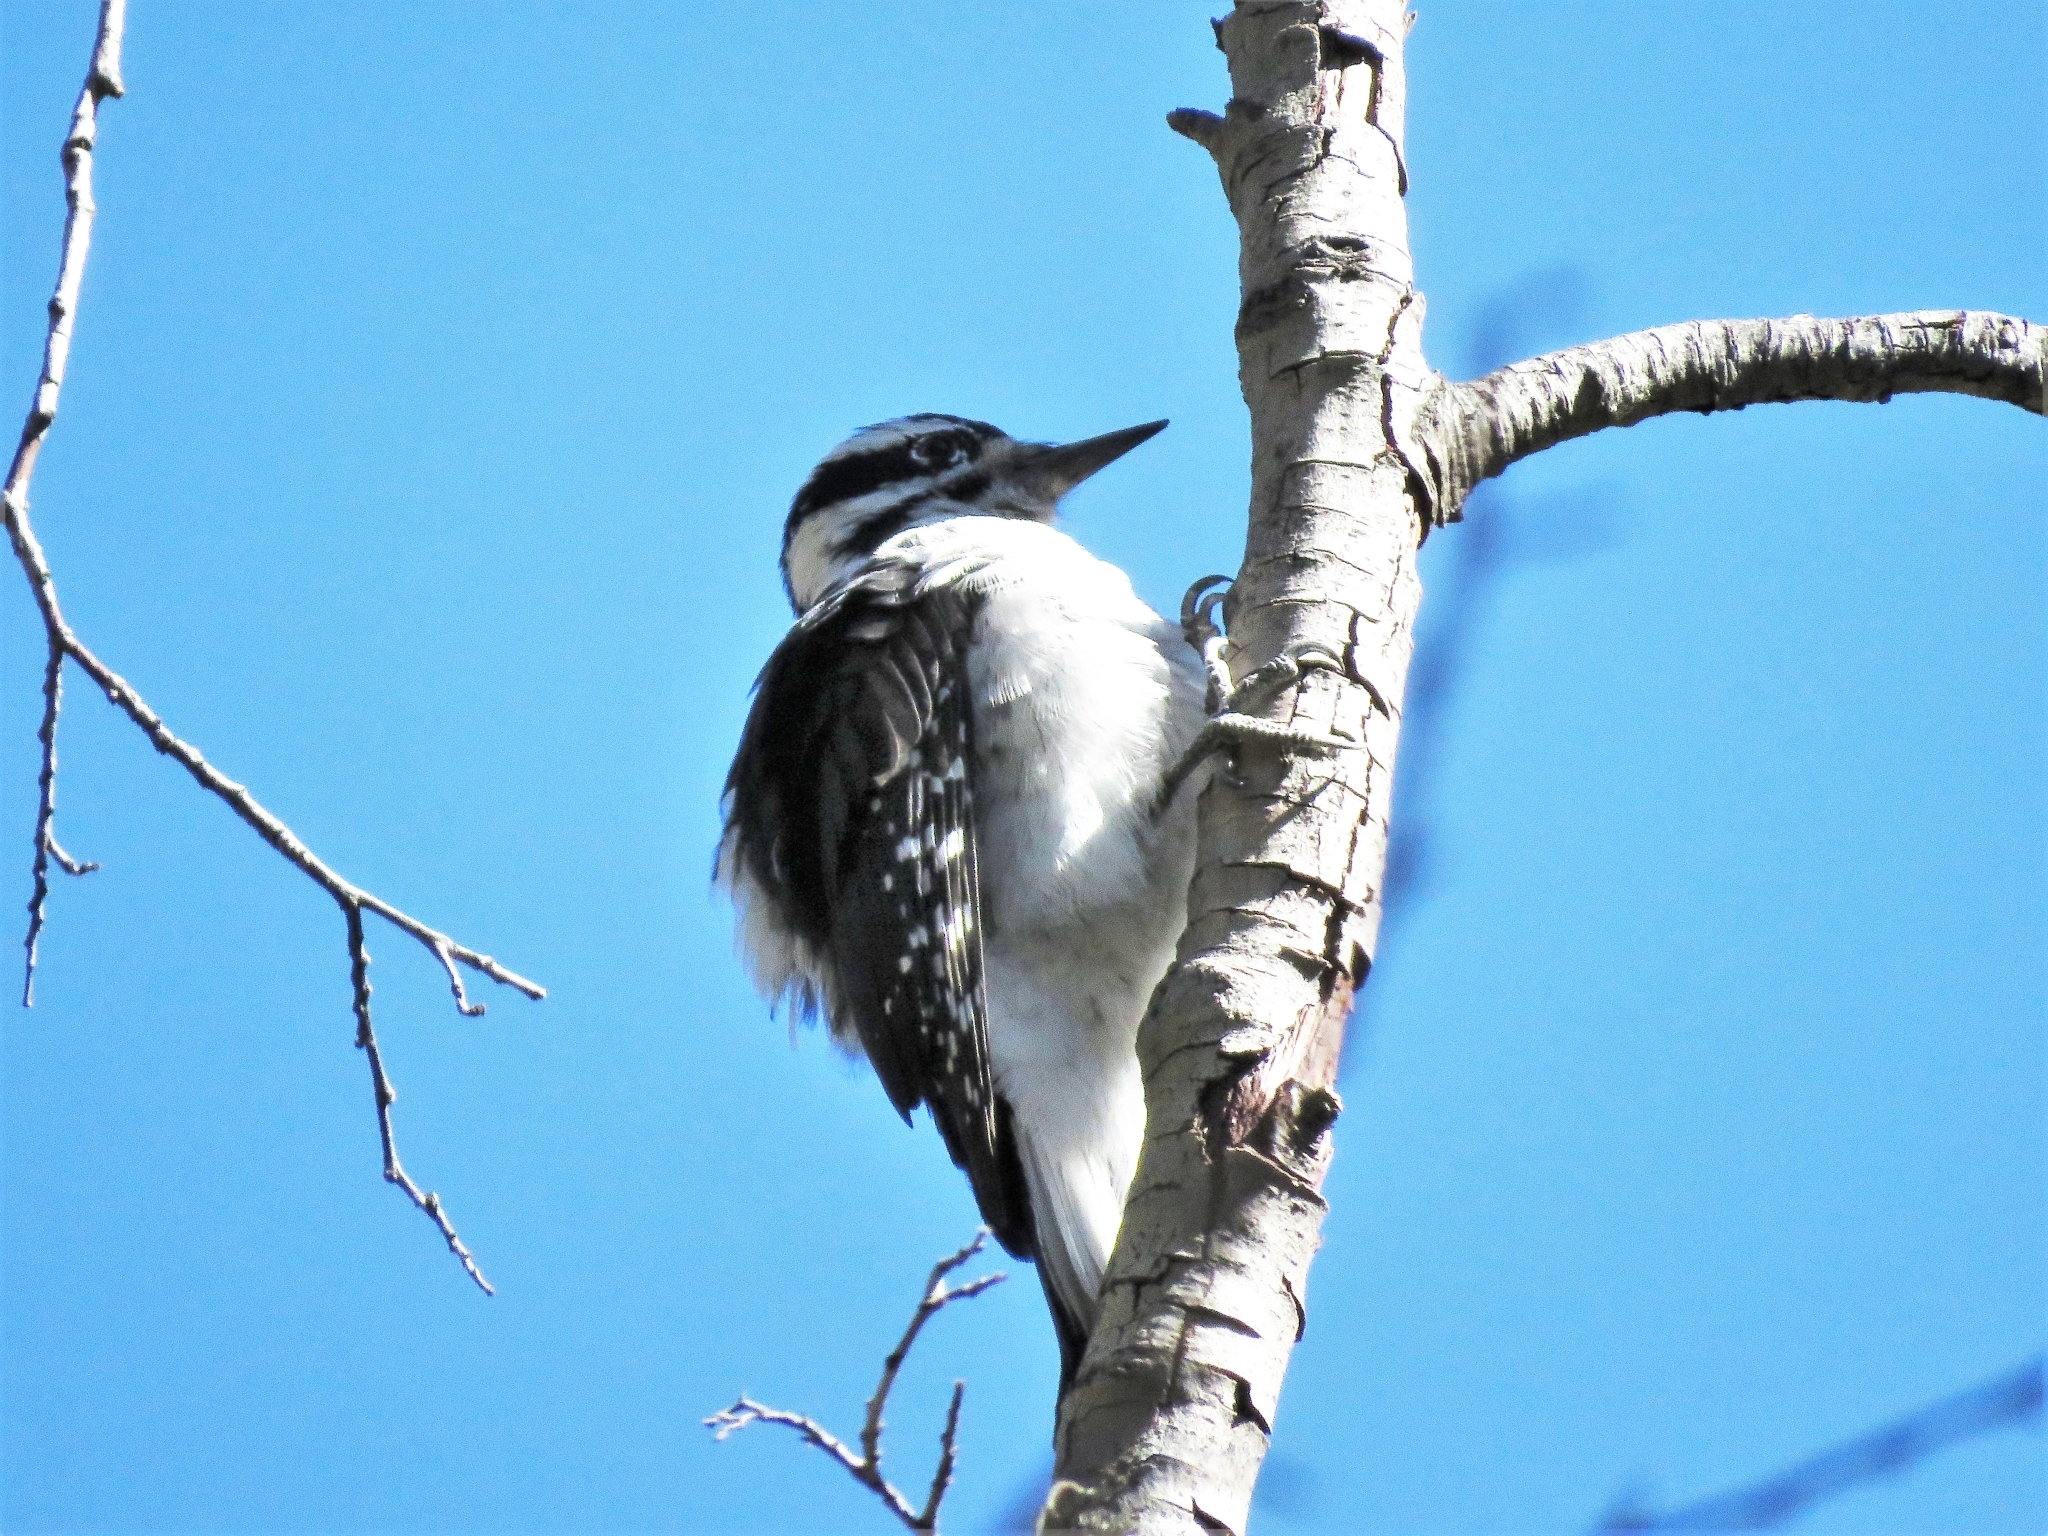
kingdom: Animalia
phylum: Chordata
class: Aves
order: Piciformes
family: Picidae
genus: Leuconotopicus
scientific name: Leuconotopicus villosus
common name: Hairy woodpecker
